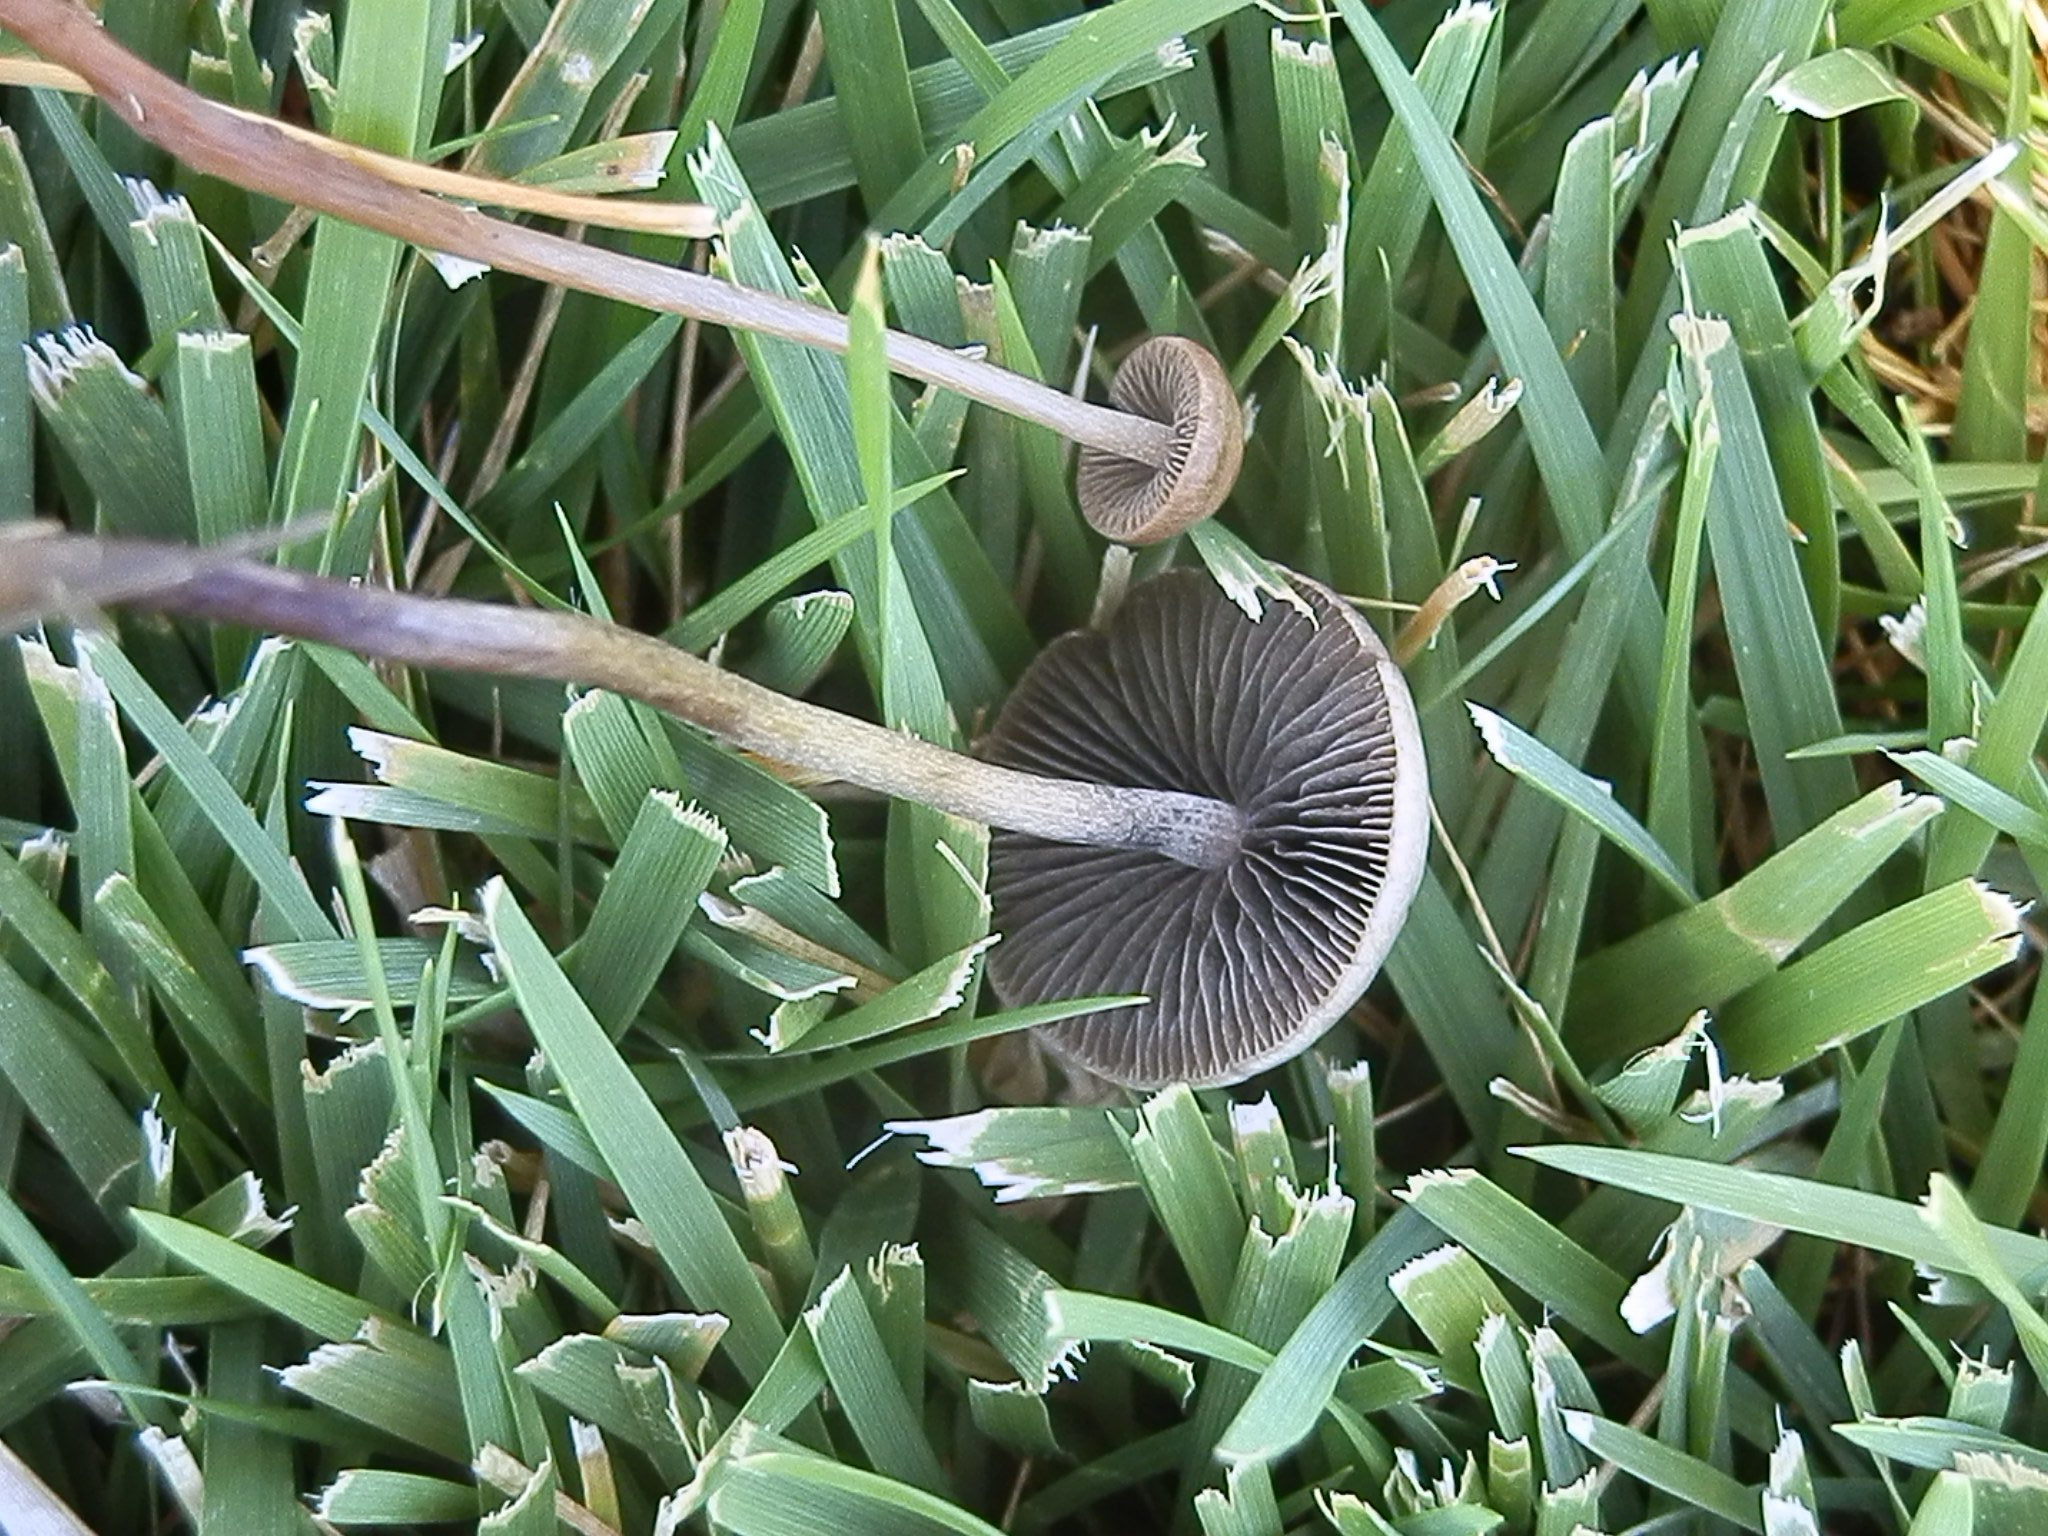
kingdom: Fungi
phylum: Basidiomycota
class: Agaricomycetes
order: Agaricales
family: Bolbitiaceae
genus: Panaeolus
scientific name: Panaeolus subbalteatus
